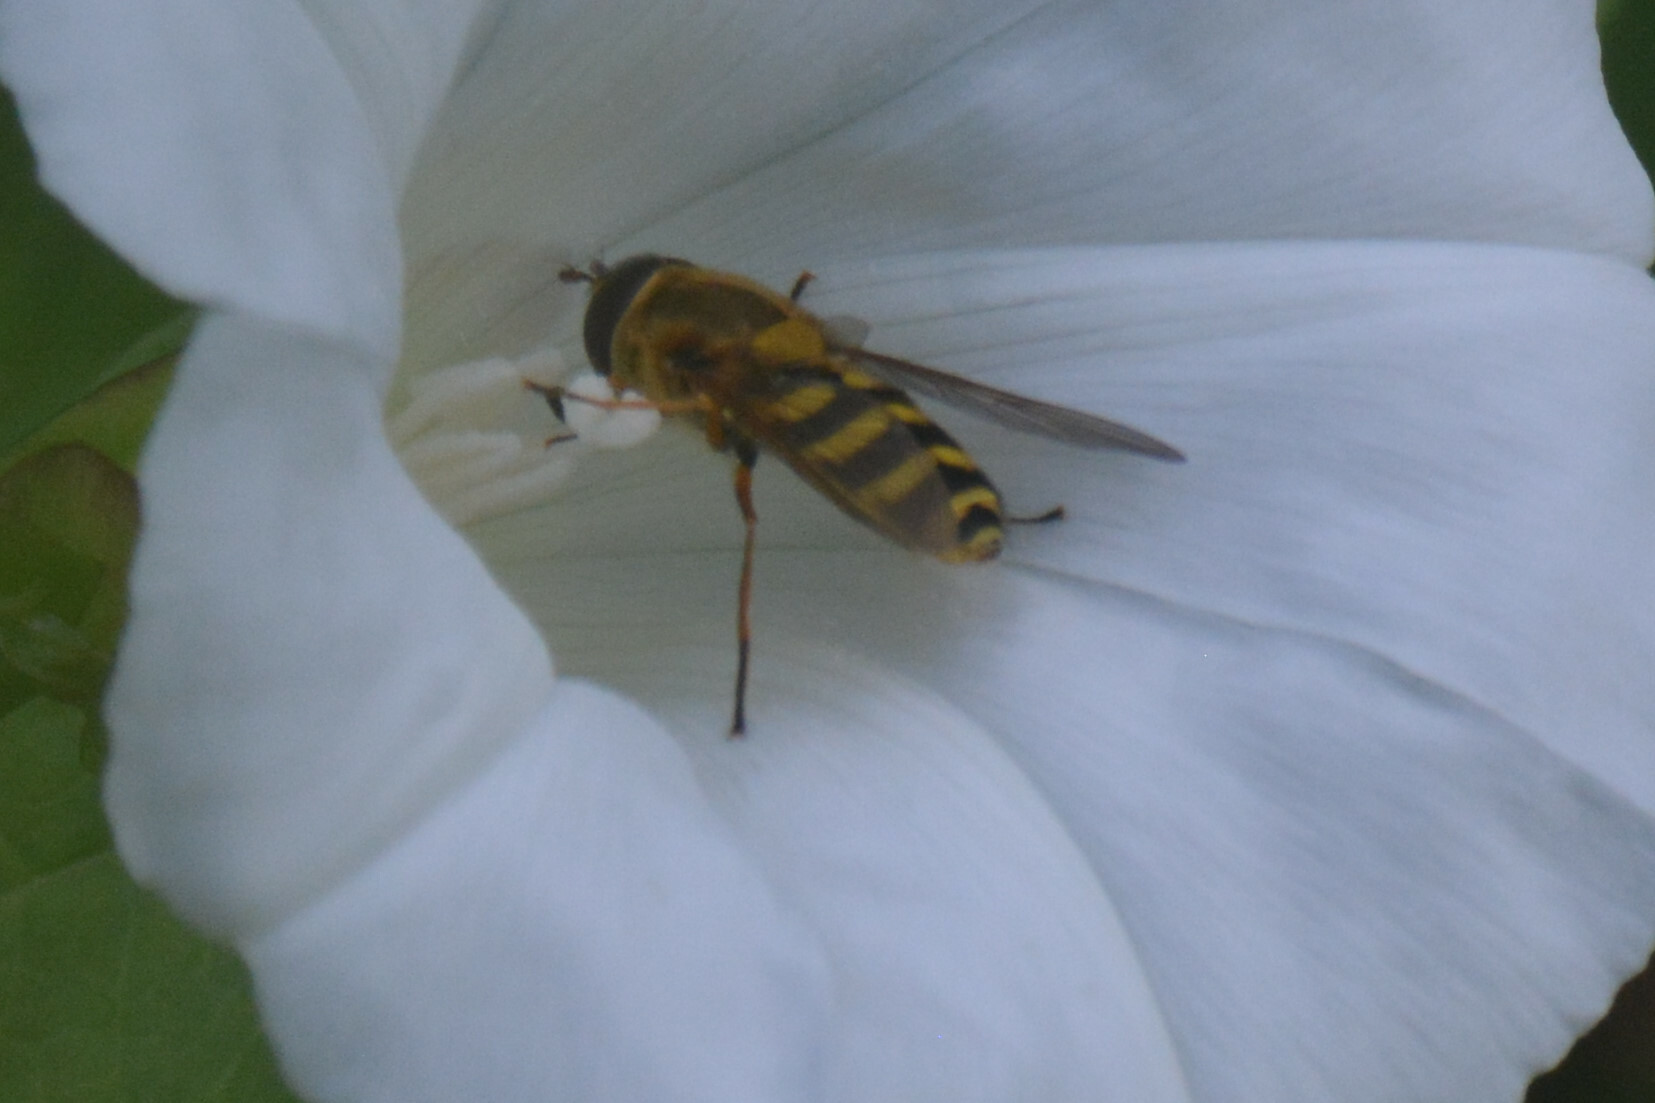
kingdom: Animalia
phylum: Arthropoda
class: Insecta
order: Diptera
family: Syrphidae
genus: Syrphus
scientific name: Syrphus ribesii
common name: Common flower fly
